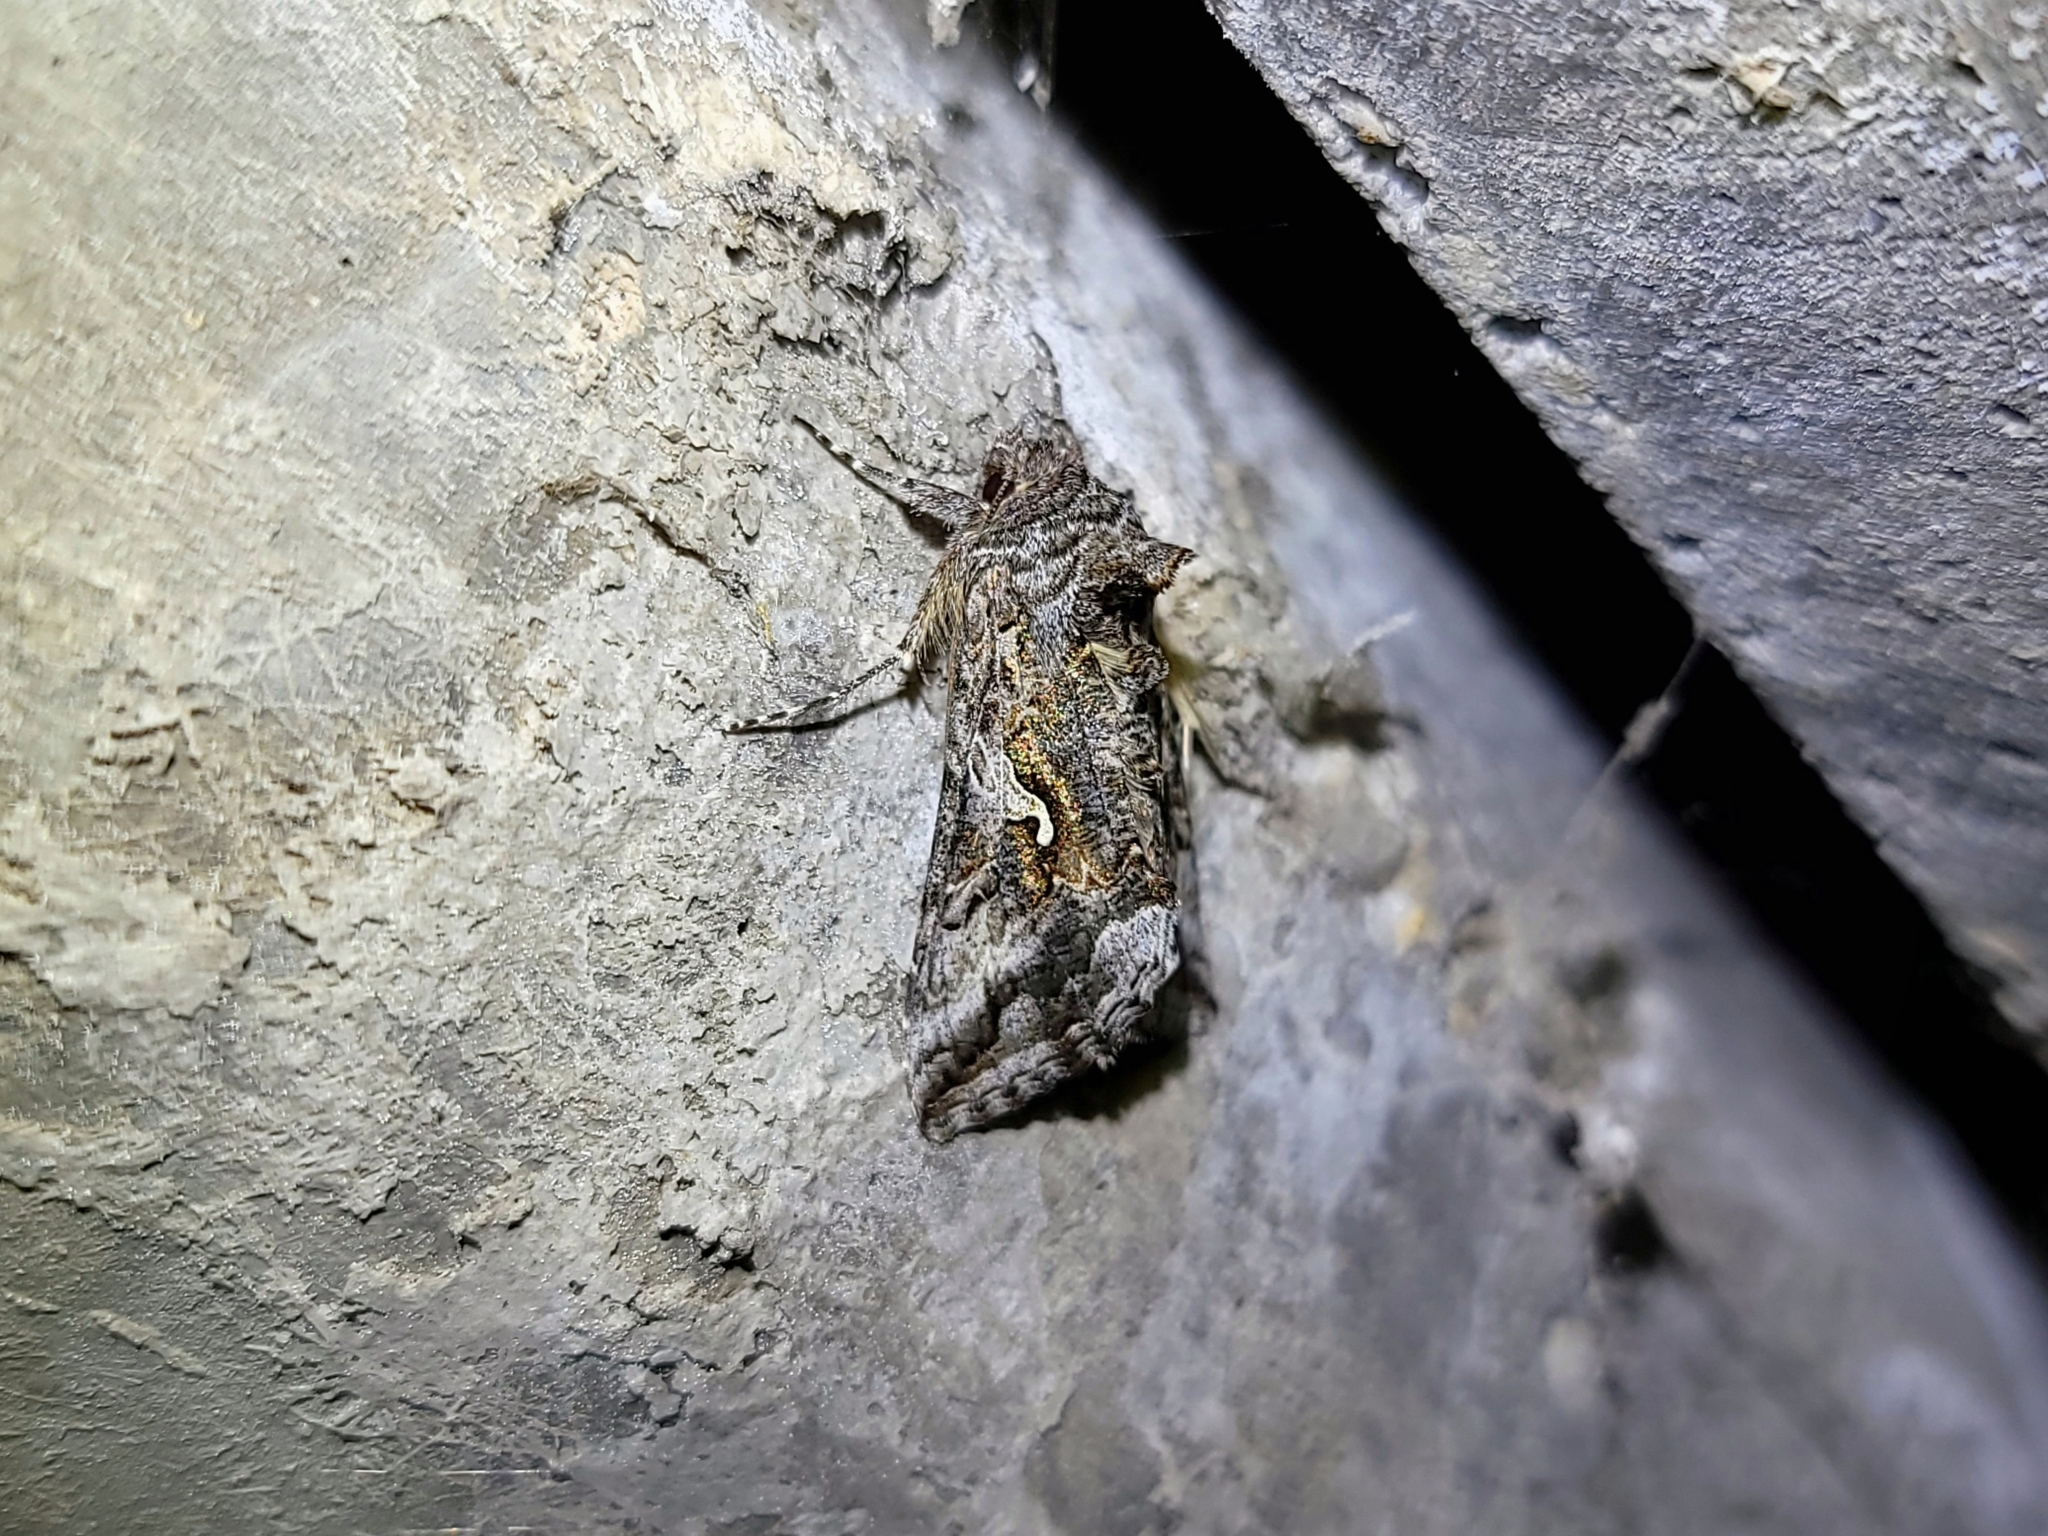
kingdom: Animalia
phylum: Arthropoda
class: Insecta
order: Lepidoptera
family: Noctuidae
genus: Autographa
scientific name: Autographa californica
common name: Alfalfa looper
